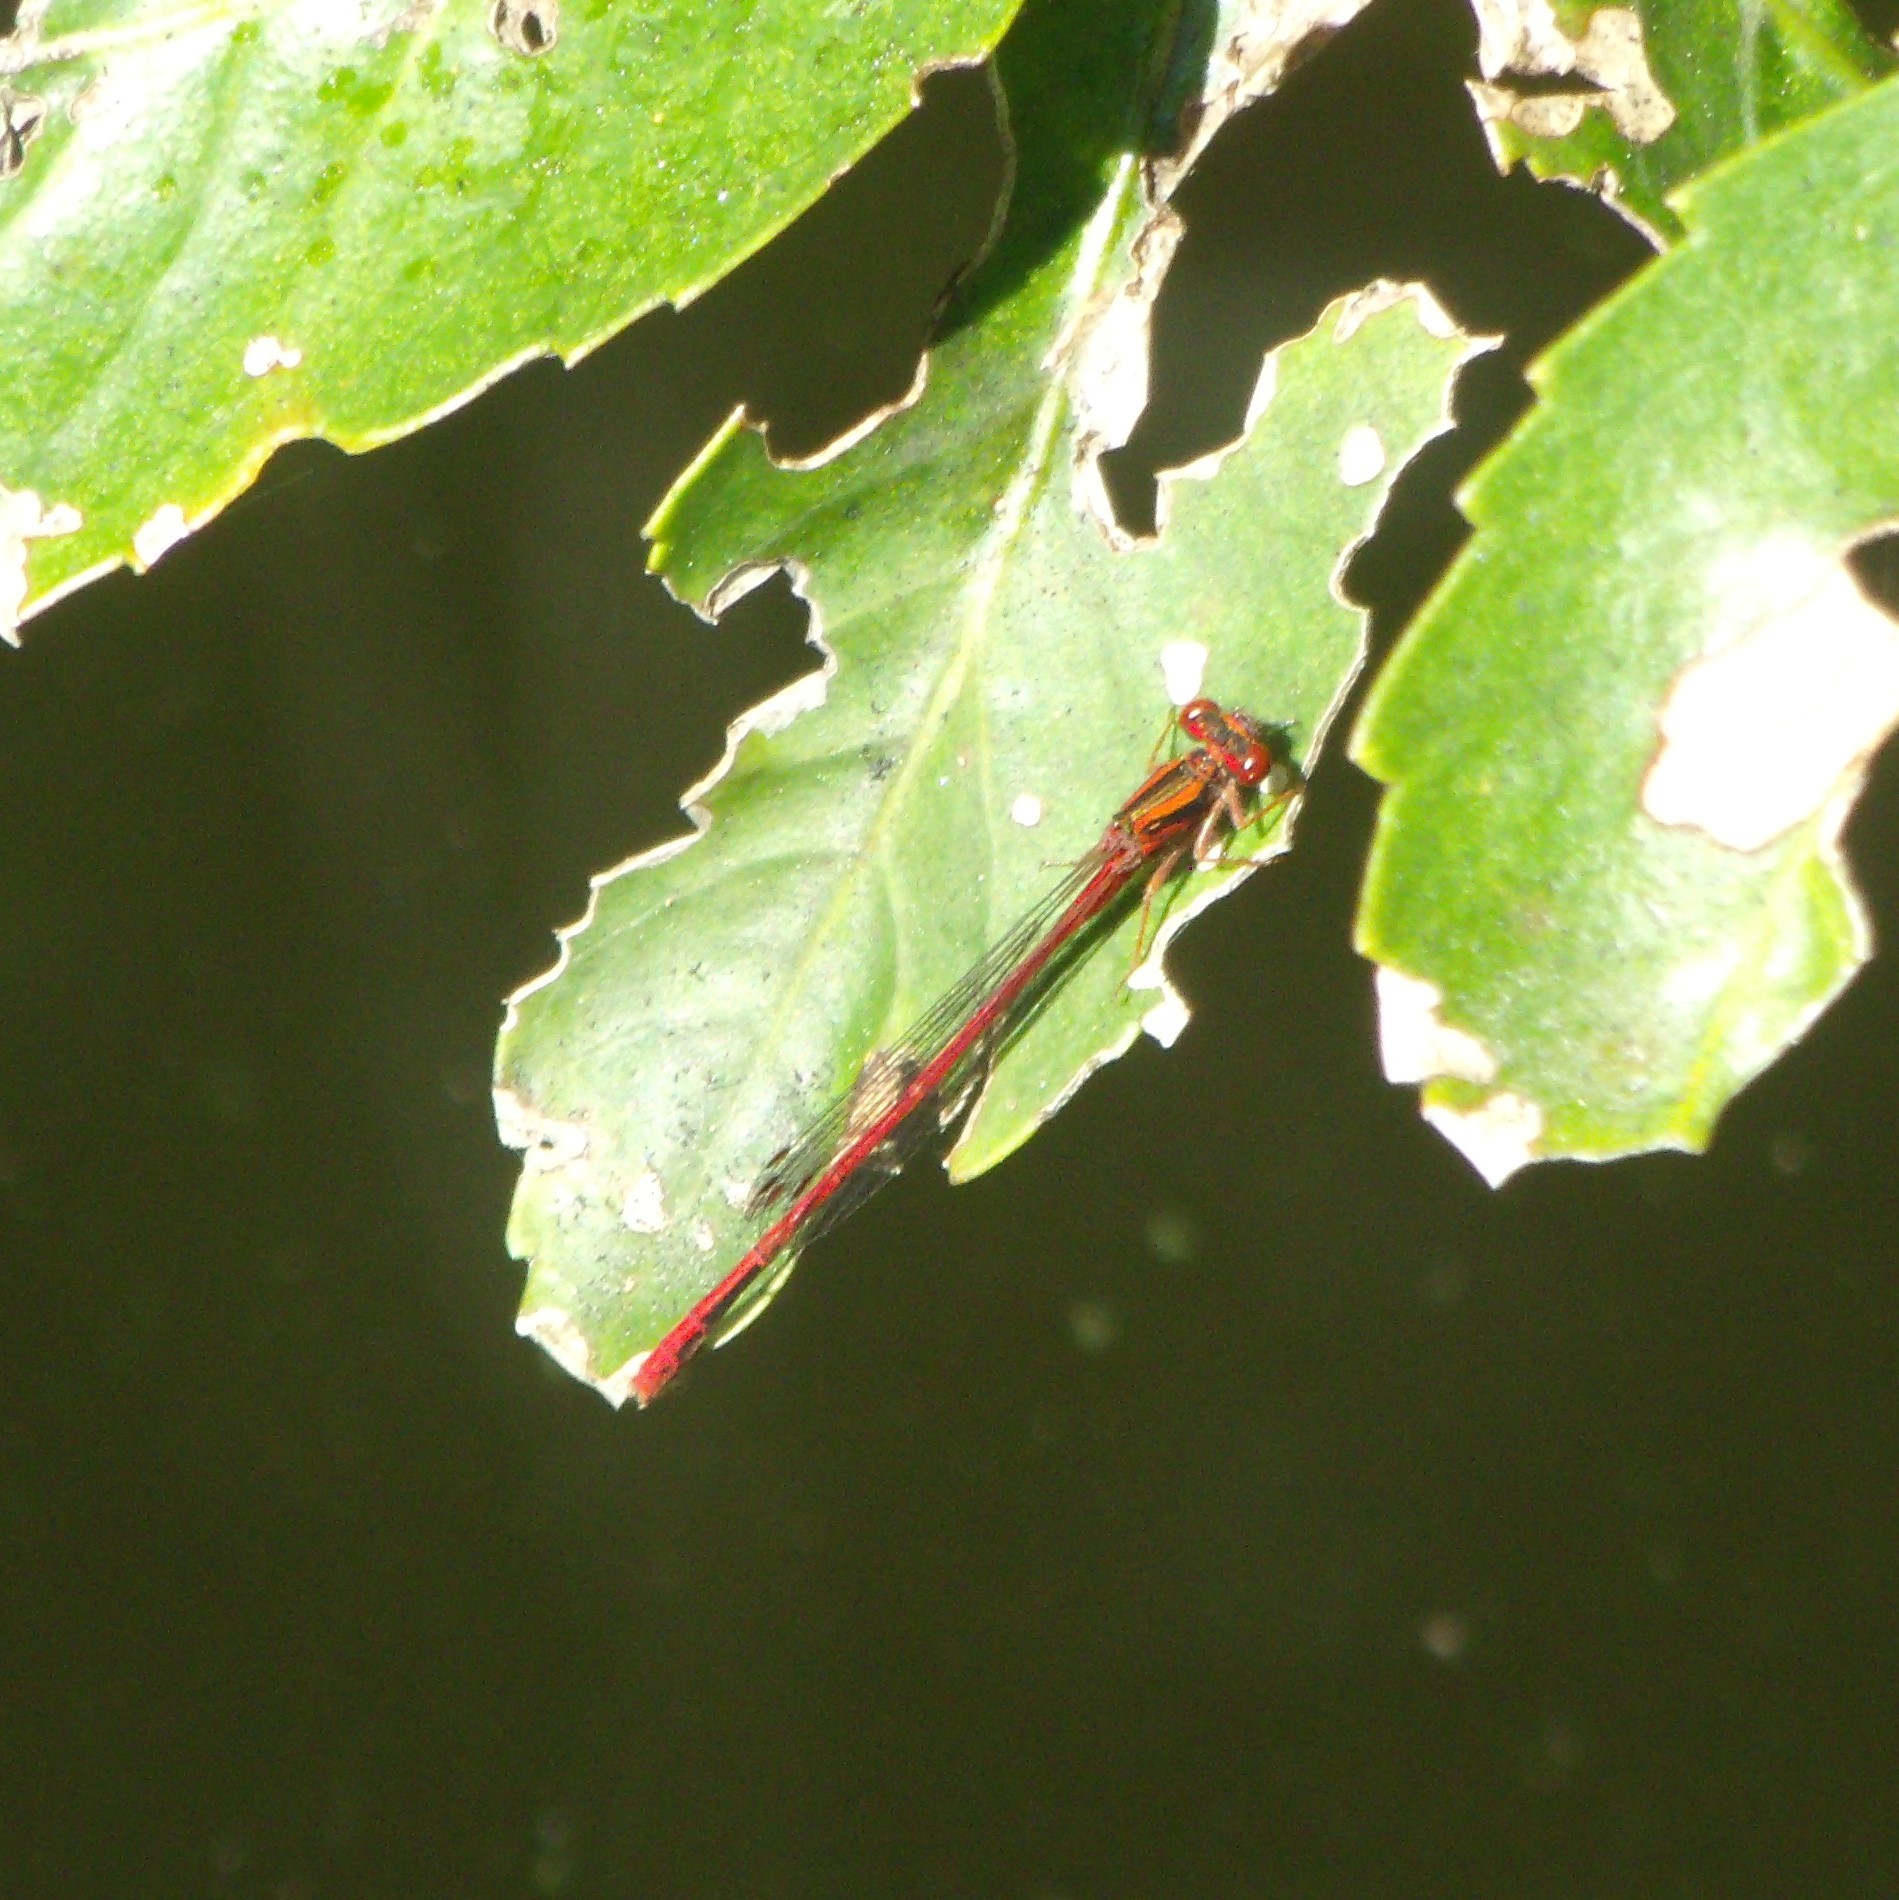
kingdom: Animalia
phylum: Arthropoda
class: Insecta
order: Odonata
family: Coenagrionidae
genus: Xanthocnemis
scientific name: Xanthocnemis zealandica
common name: Common redcoat damselfly
